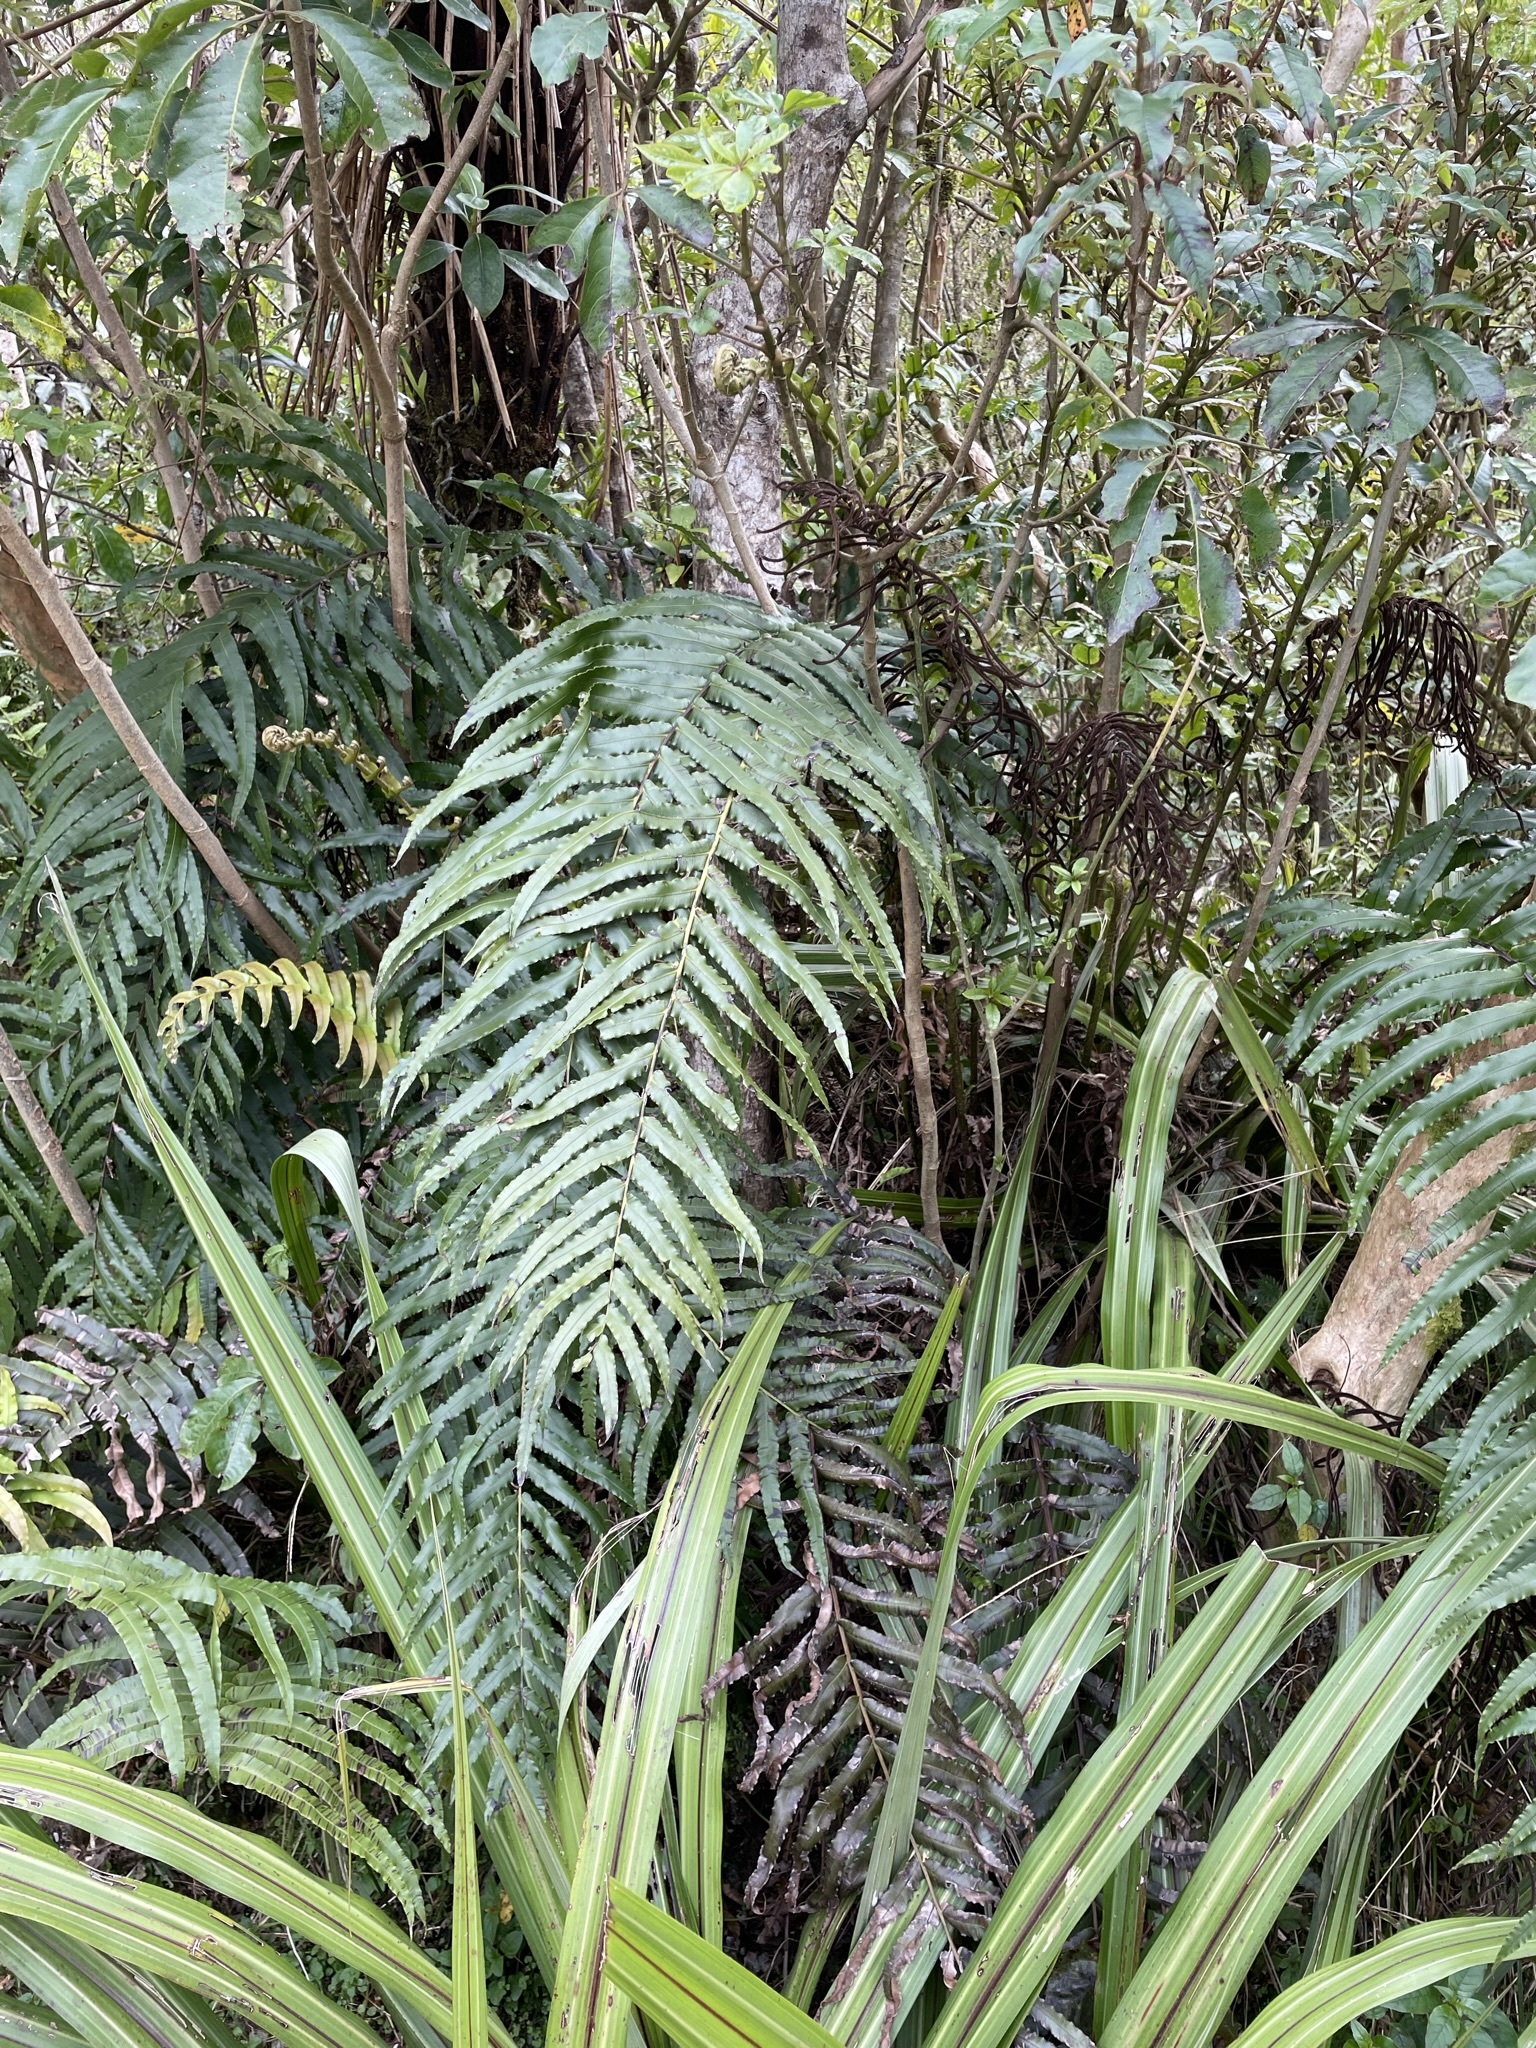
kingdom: Plantae
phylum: Tracheophyta
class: Polypodiopsida
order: Polypodiales
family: Blechnaceae
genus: Parablechnum
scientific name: Parablechnum novae-zelandiae
